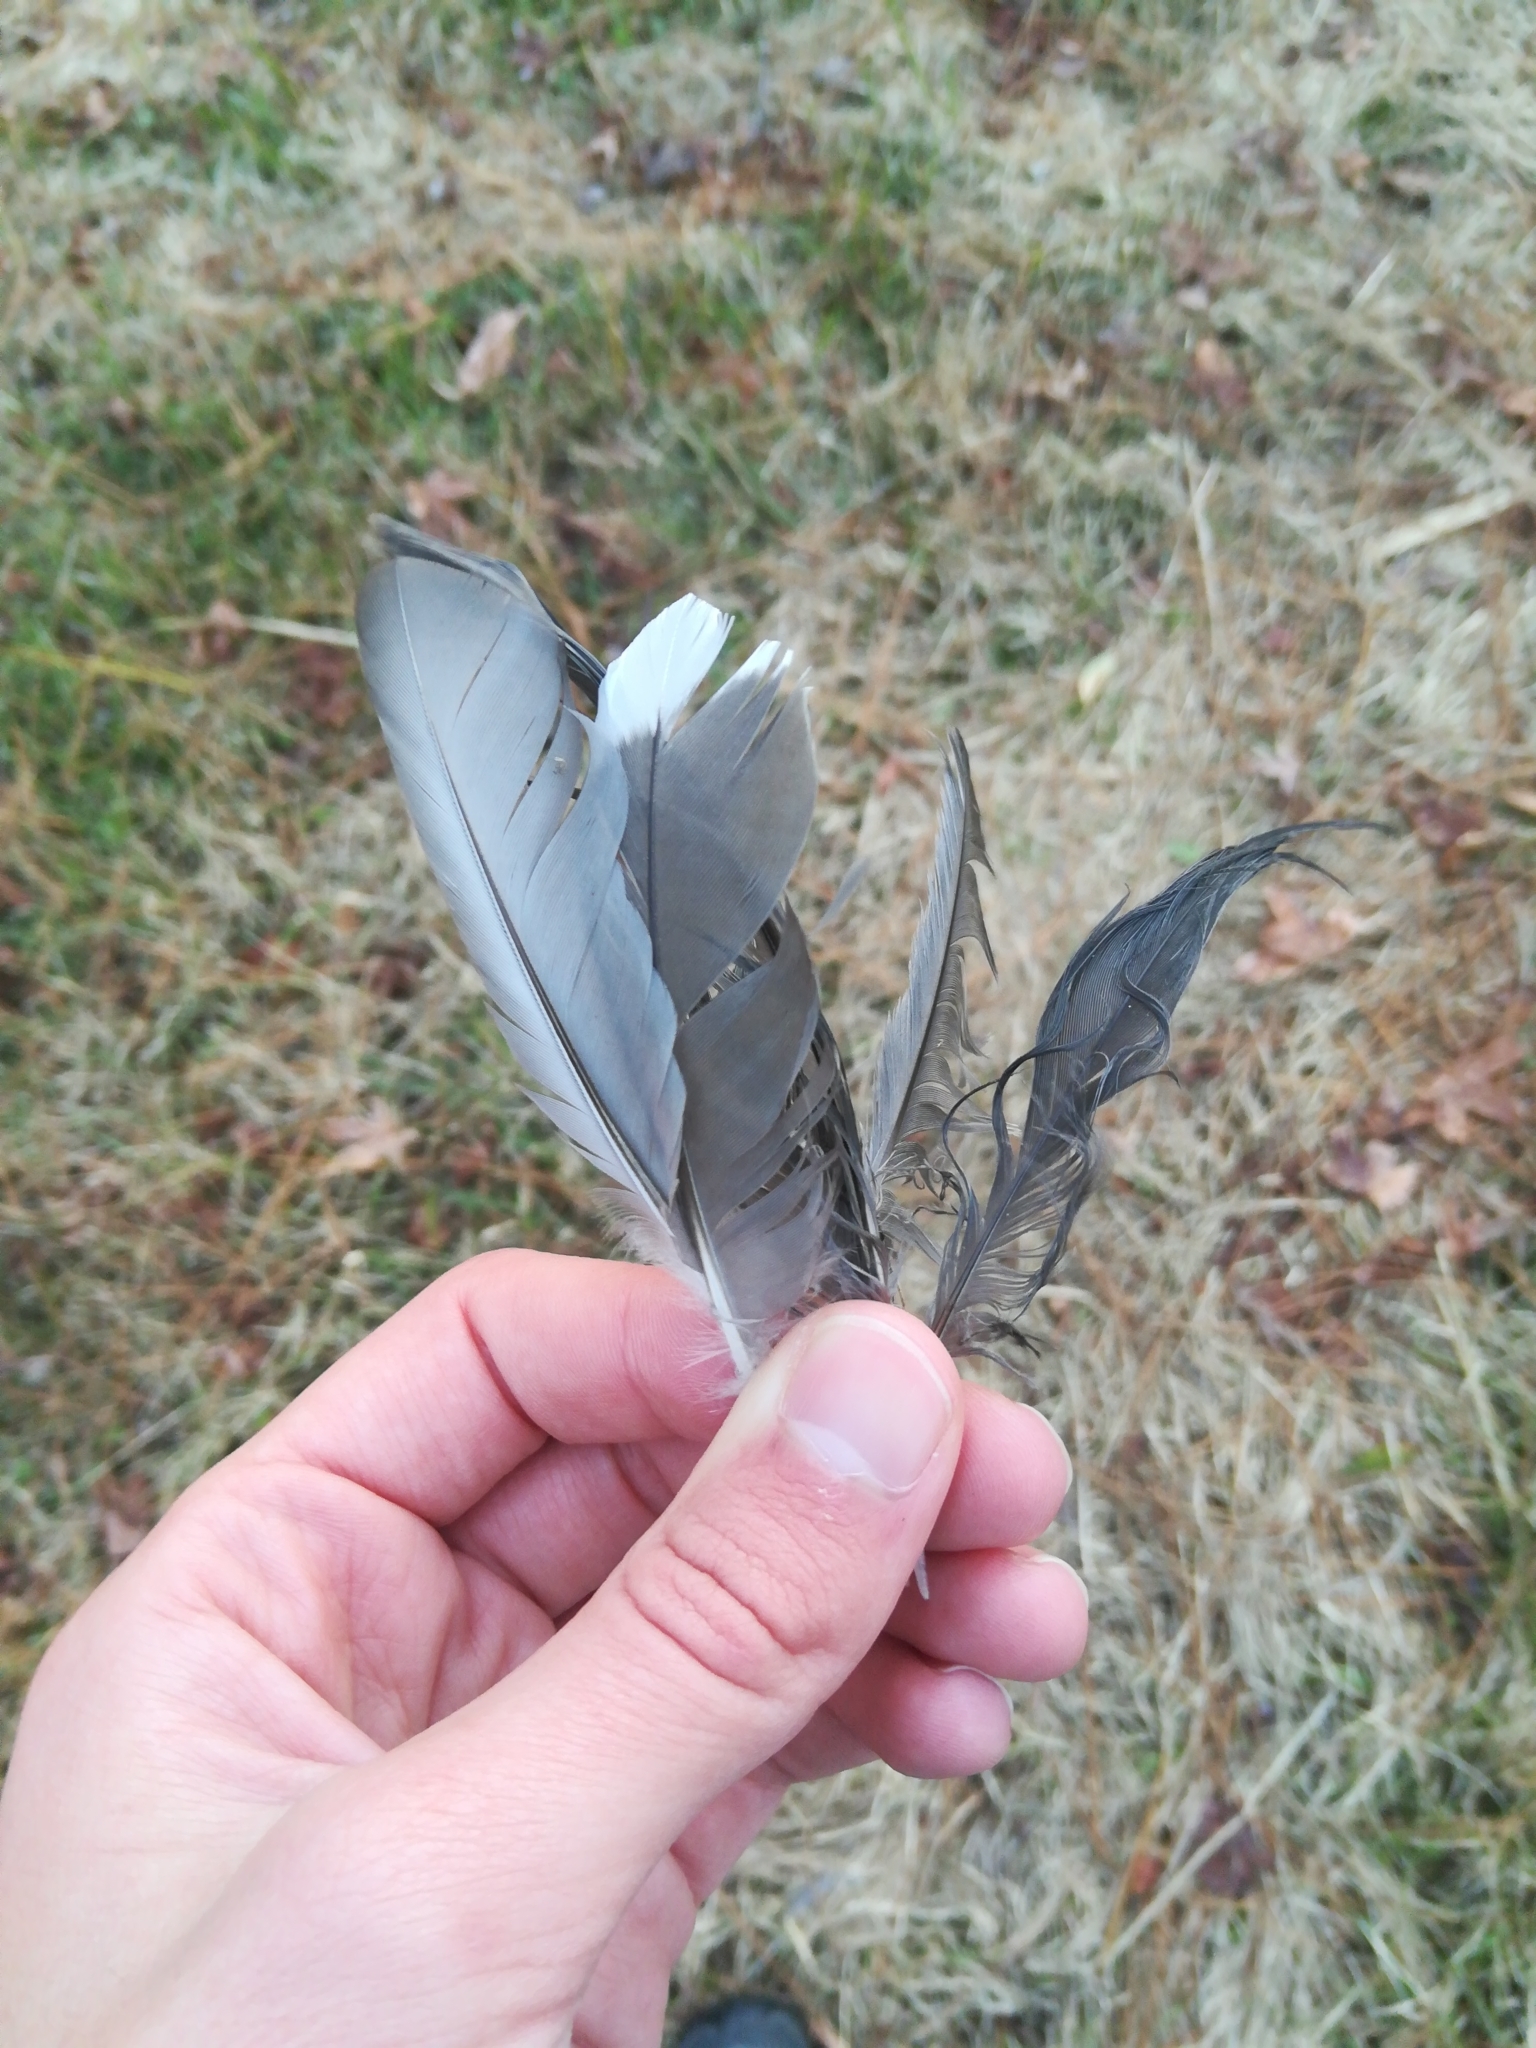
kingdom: Animalia
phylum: Chordata
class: Aves
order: Gruiformes
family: Rallidae
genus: Fulica
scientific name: Fulica americana
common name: American coot
